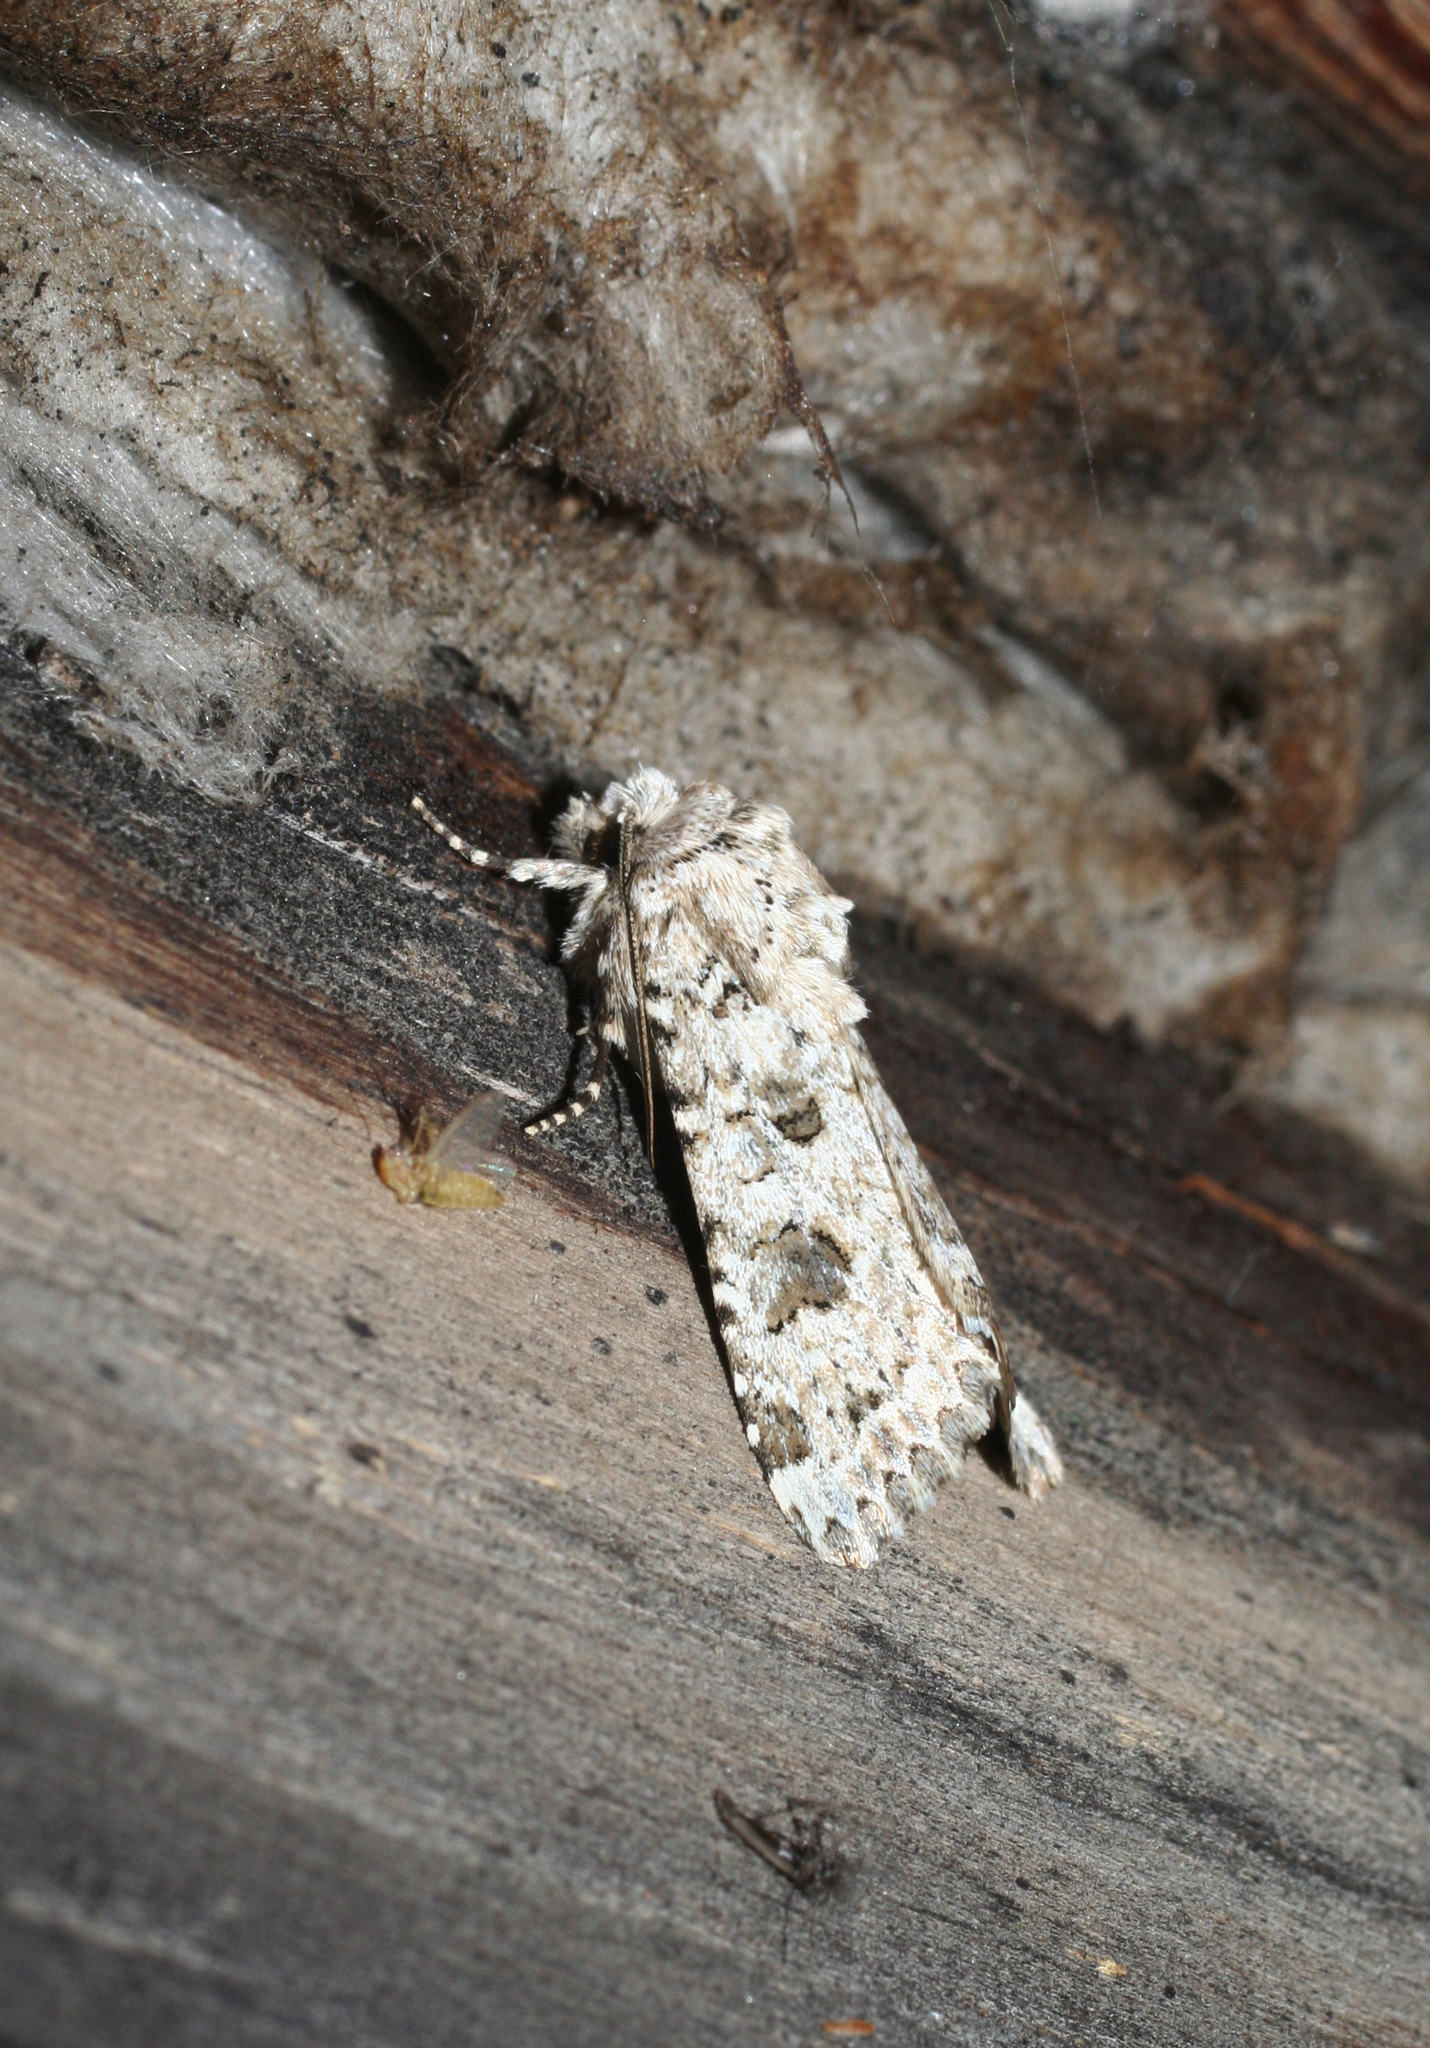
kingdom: Animalia
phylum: Arthropoda
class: Insecta
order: Lepidoptera
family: Noctuidae
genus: Anarta
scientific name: Anarta stigmosa
